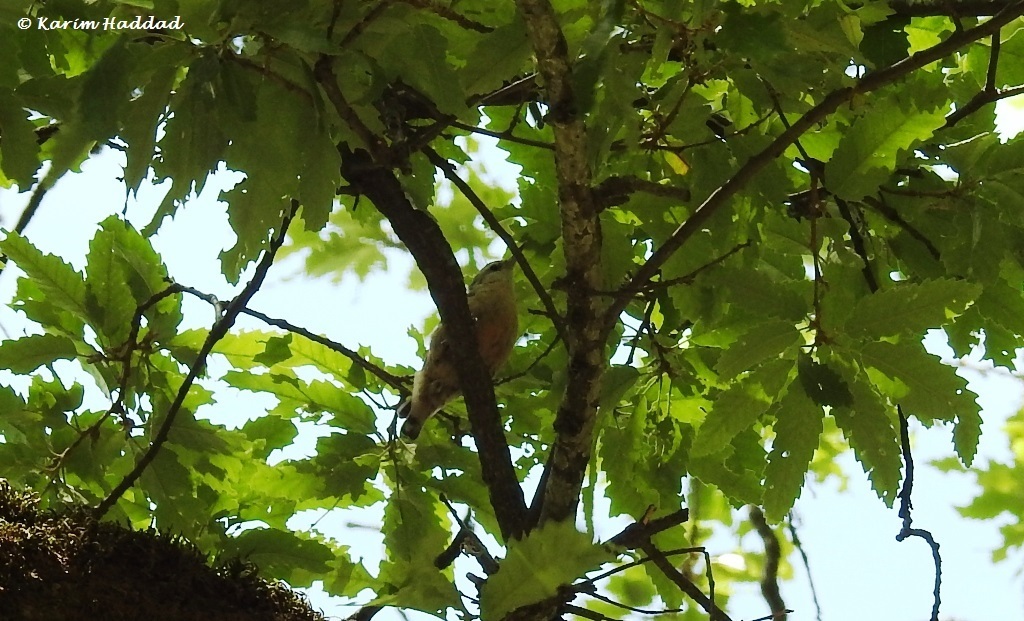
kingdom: Animalia
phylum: Chordata
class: Aves
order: Passeriformes
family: Sittidae
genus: Sitta
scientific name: Sitta ledanti
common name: Algerian nuthatch
